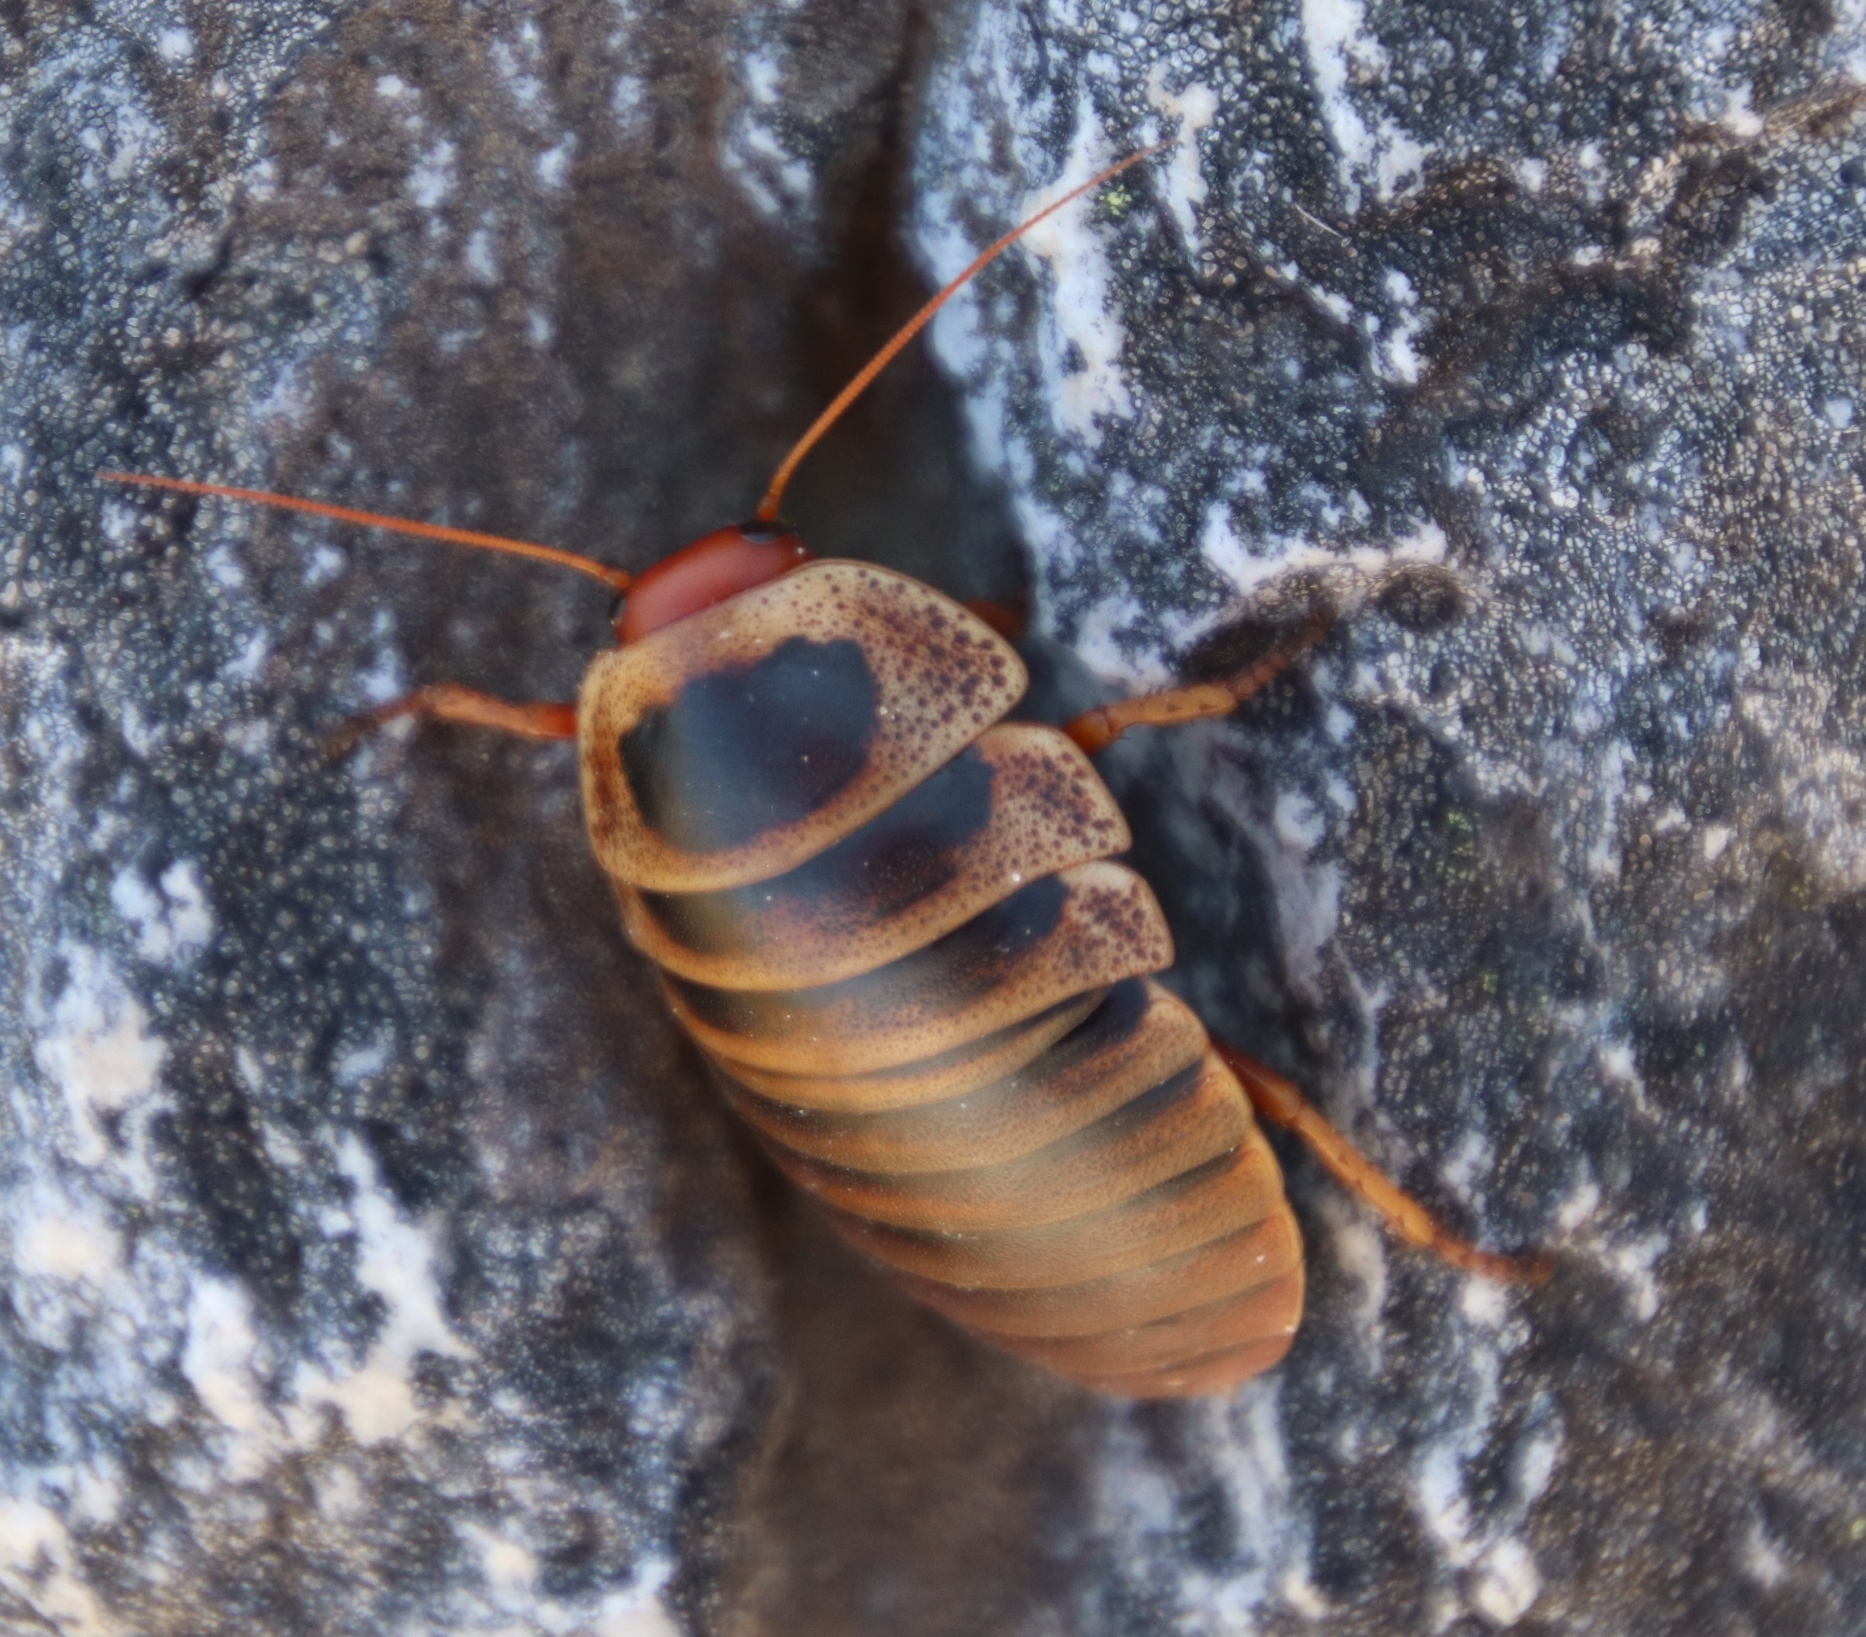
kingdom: Animalia
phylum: Arthropoda
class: Insecta
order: Blattodea
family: Blaberidae
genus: Aptera
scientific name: Aptera fusca
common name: Cape mountain cockroach
